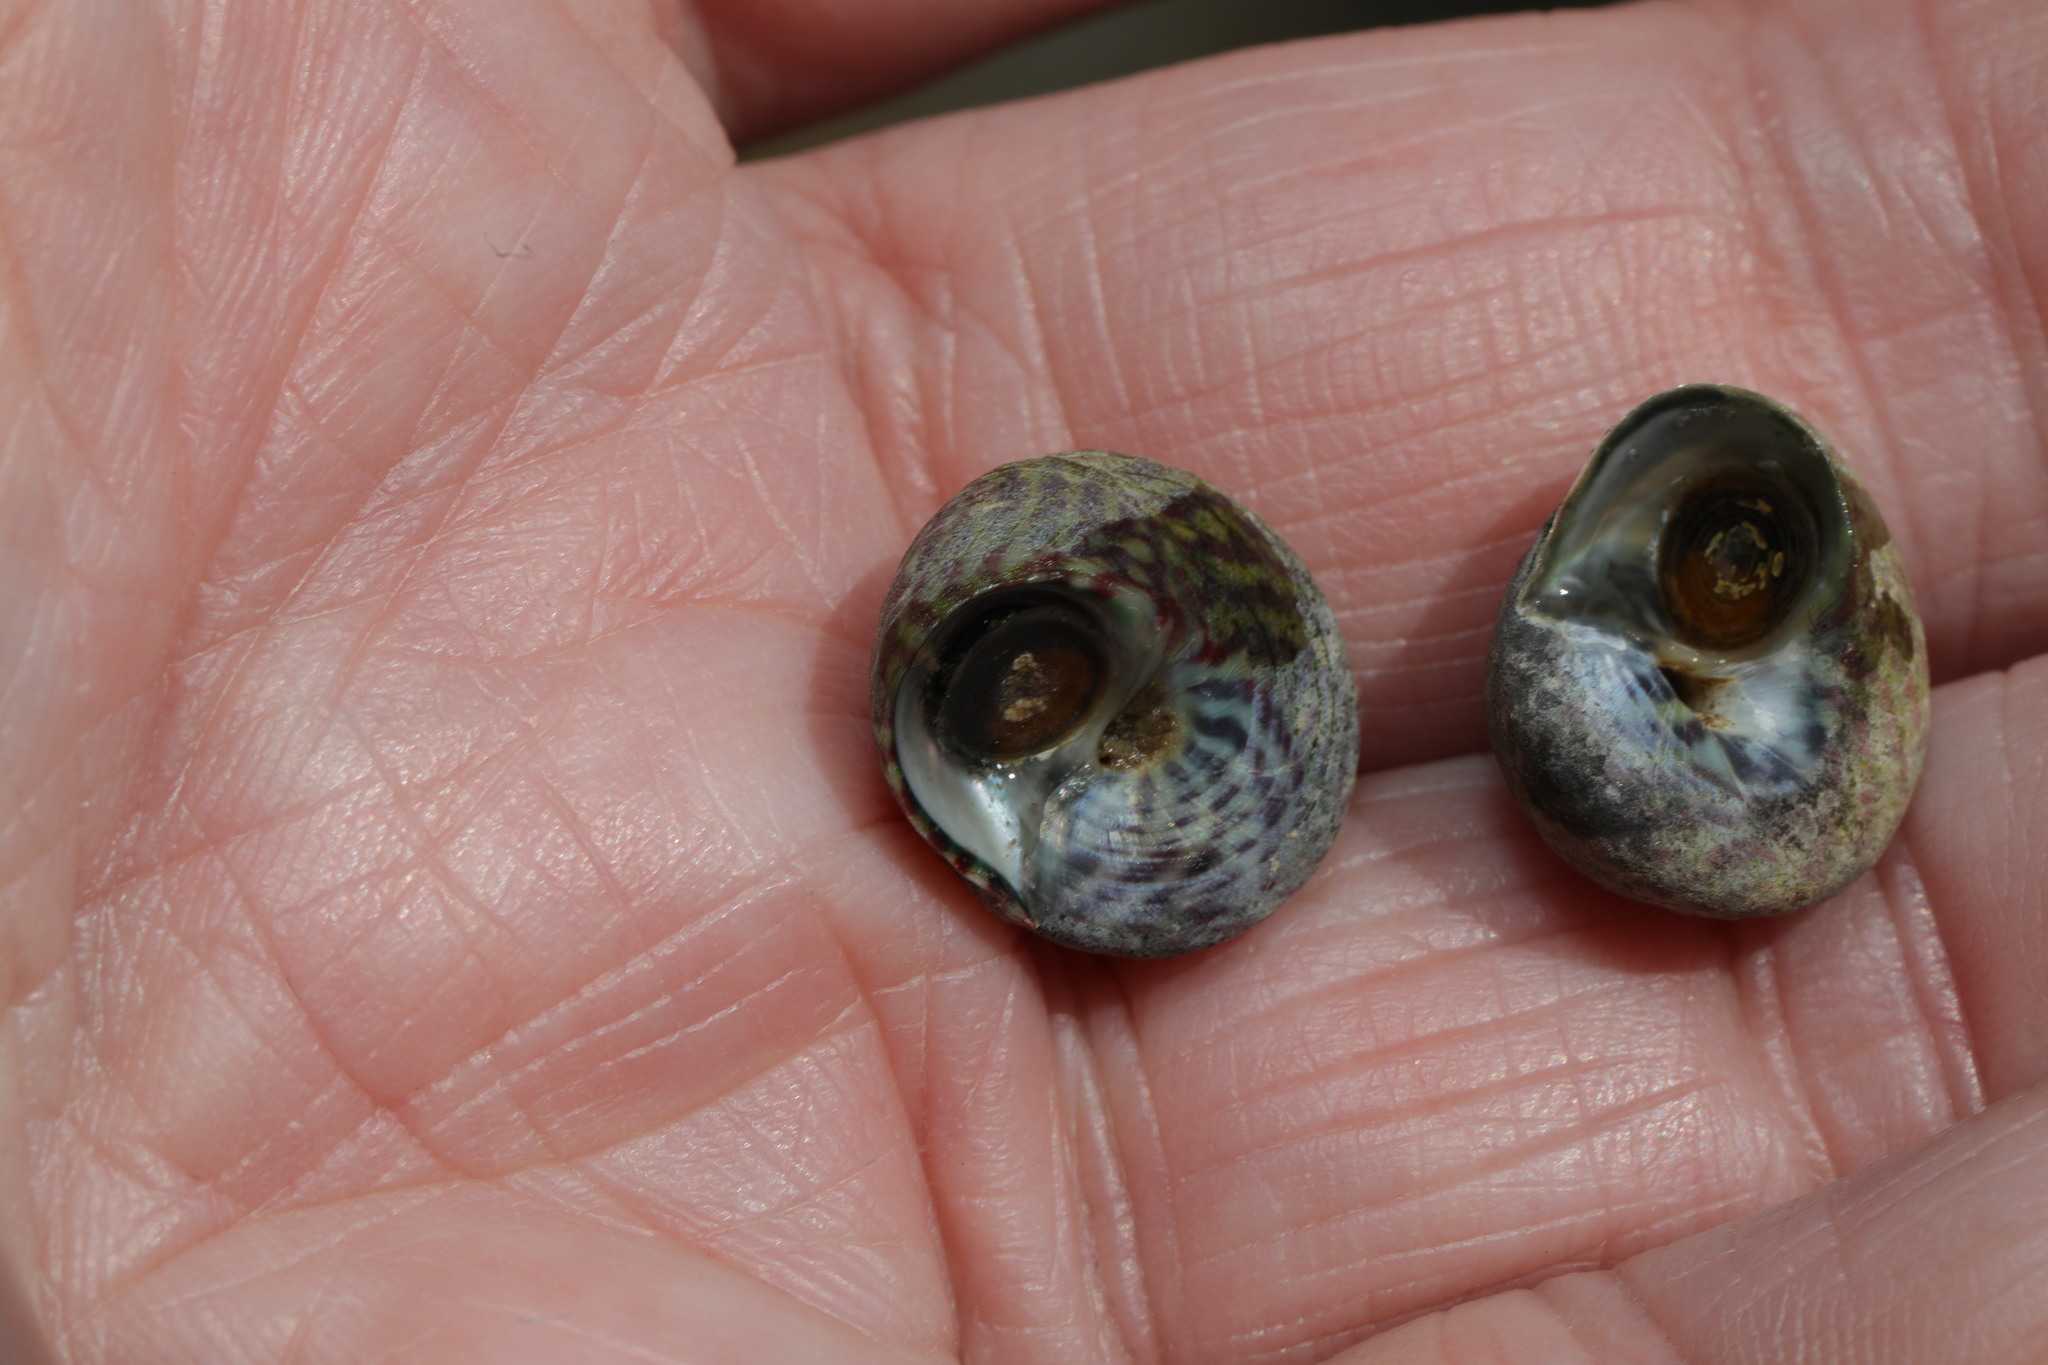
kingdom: Animalia
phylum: Mollusca
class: Gastropoda
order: Trochida
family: Trochidae
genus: Steromphala
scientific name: Steromphala umbilicalis
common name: Flat top shell
